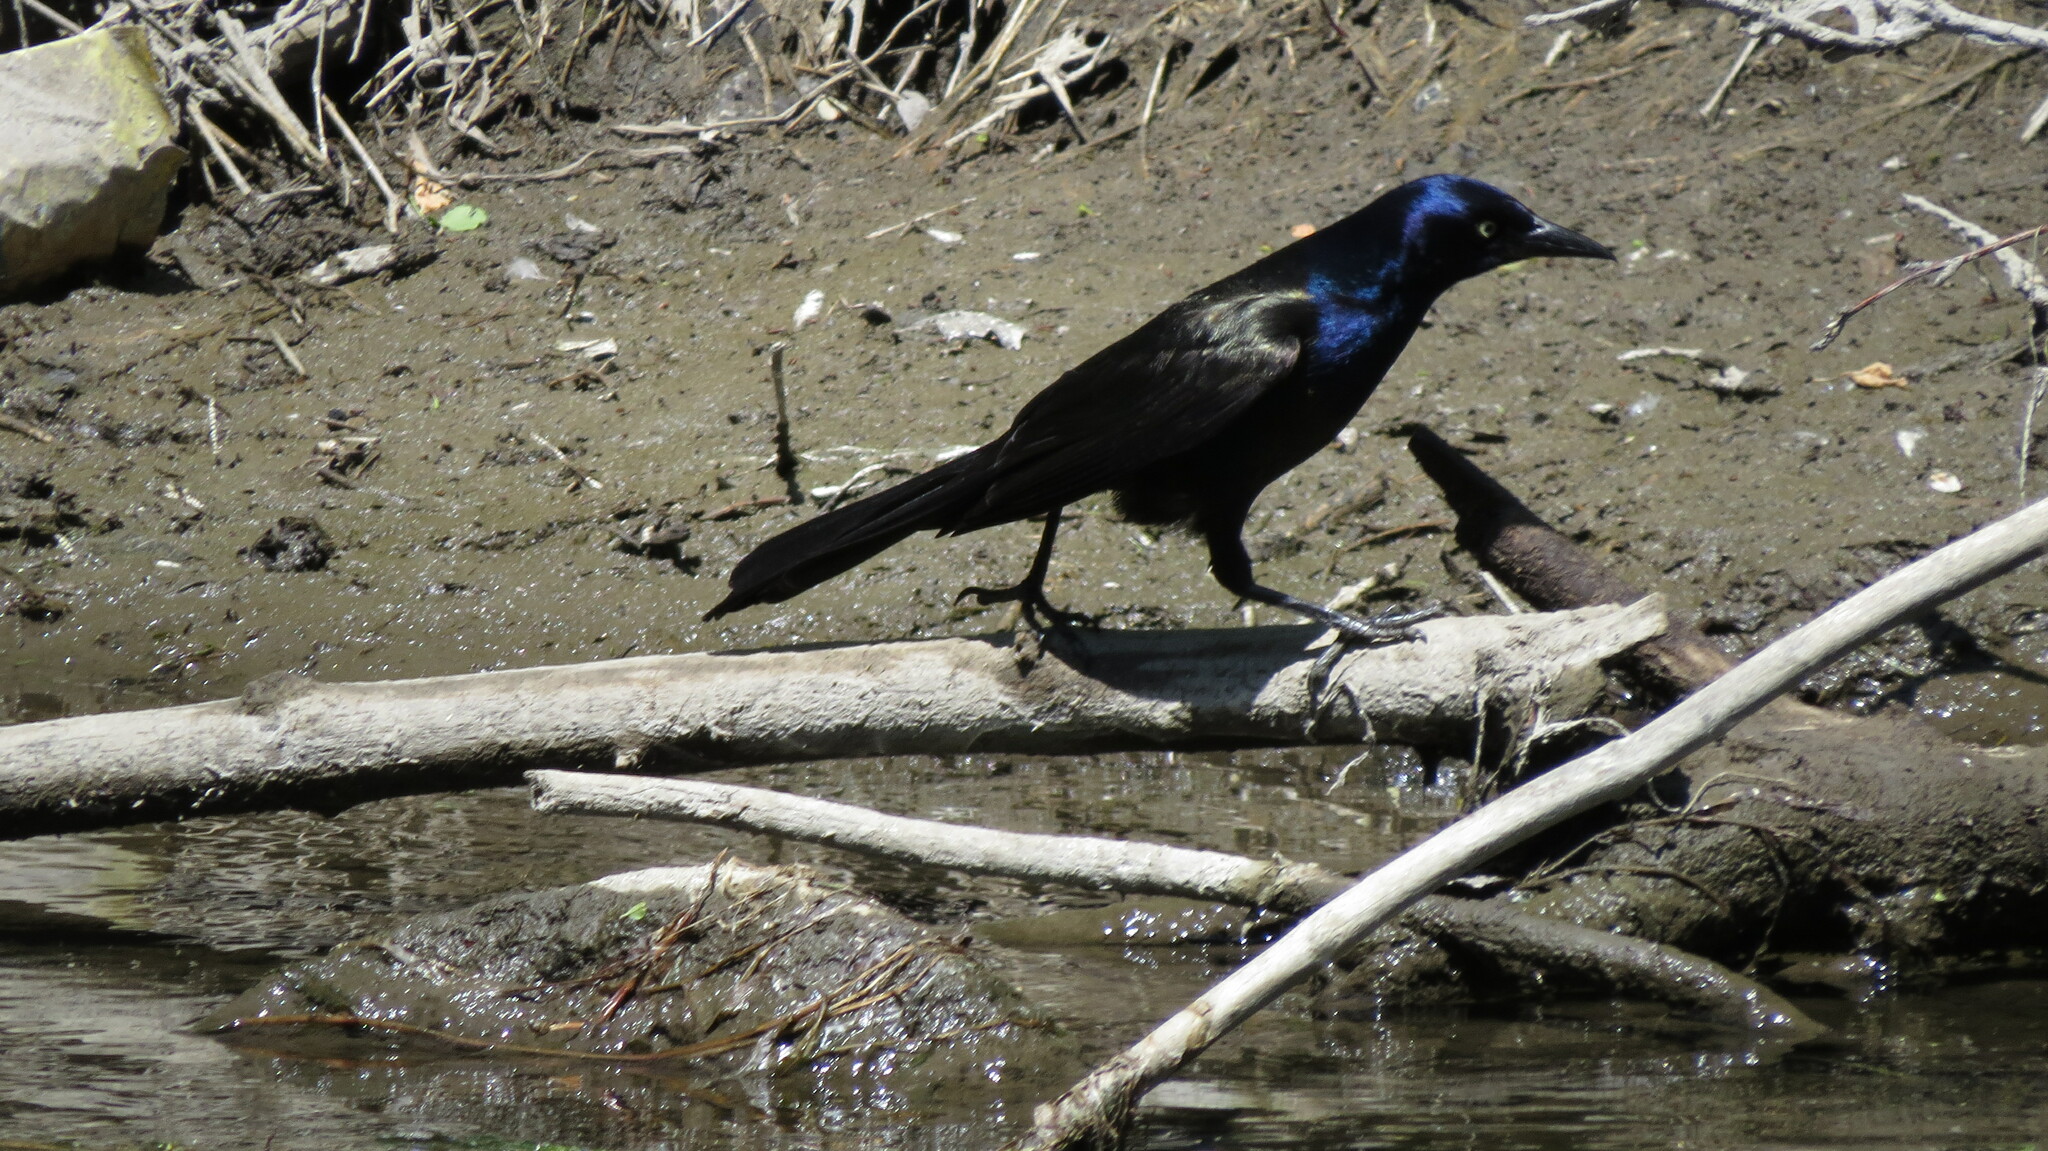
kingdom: Animalia
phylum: Chordata
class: Aves
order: Passeriformes
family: Icteridae
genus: Quiscalus
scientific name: Quiscalus quiscula
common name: Common grackle
